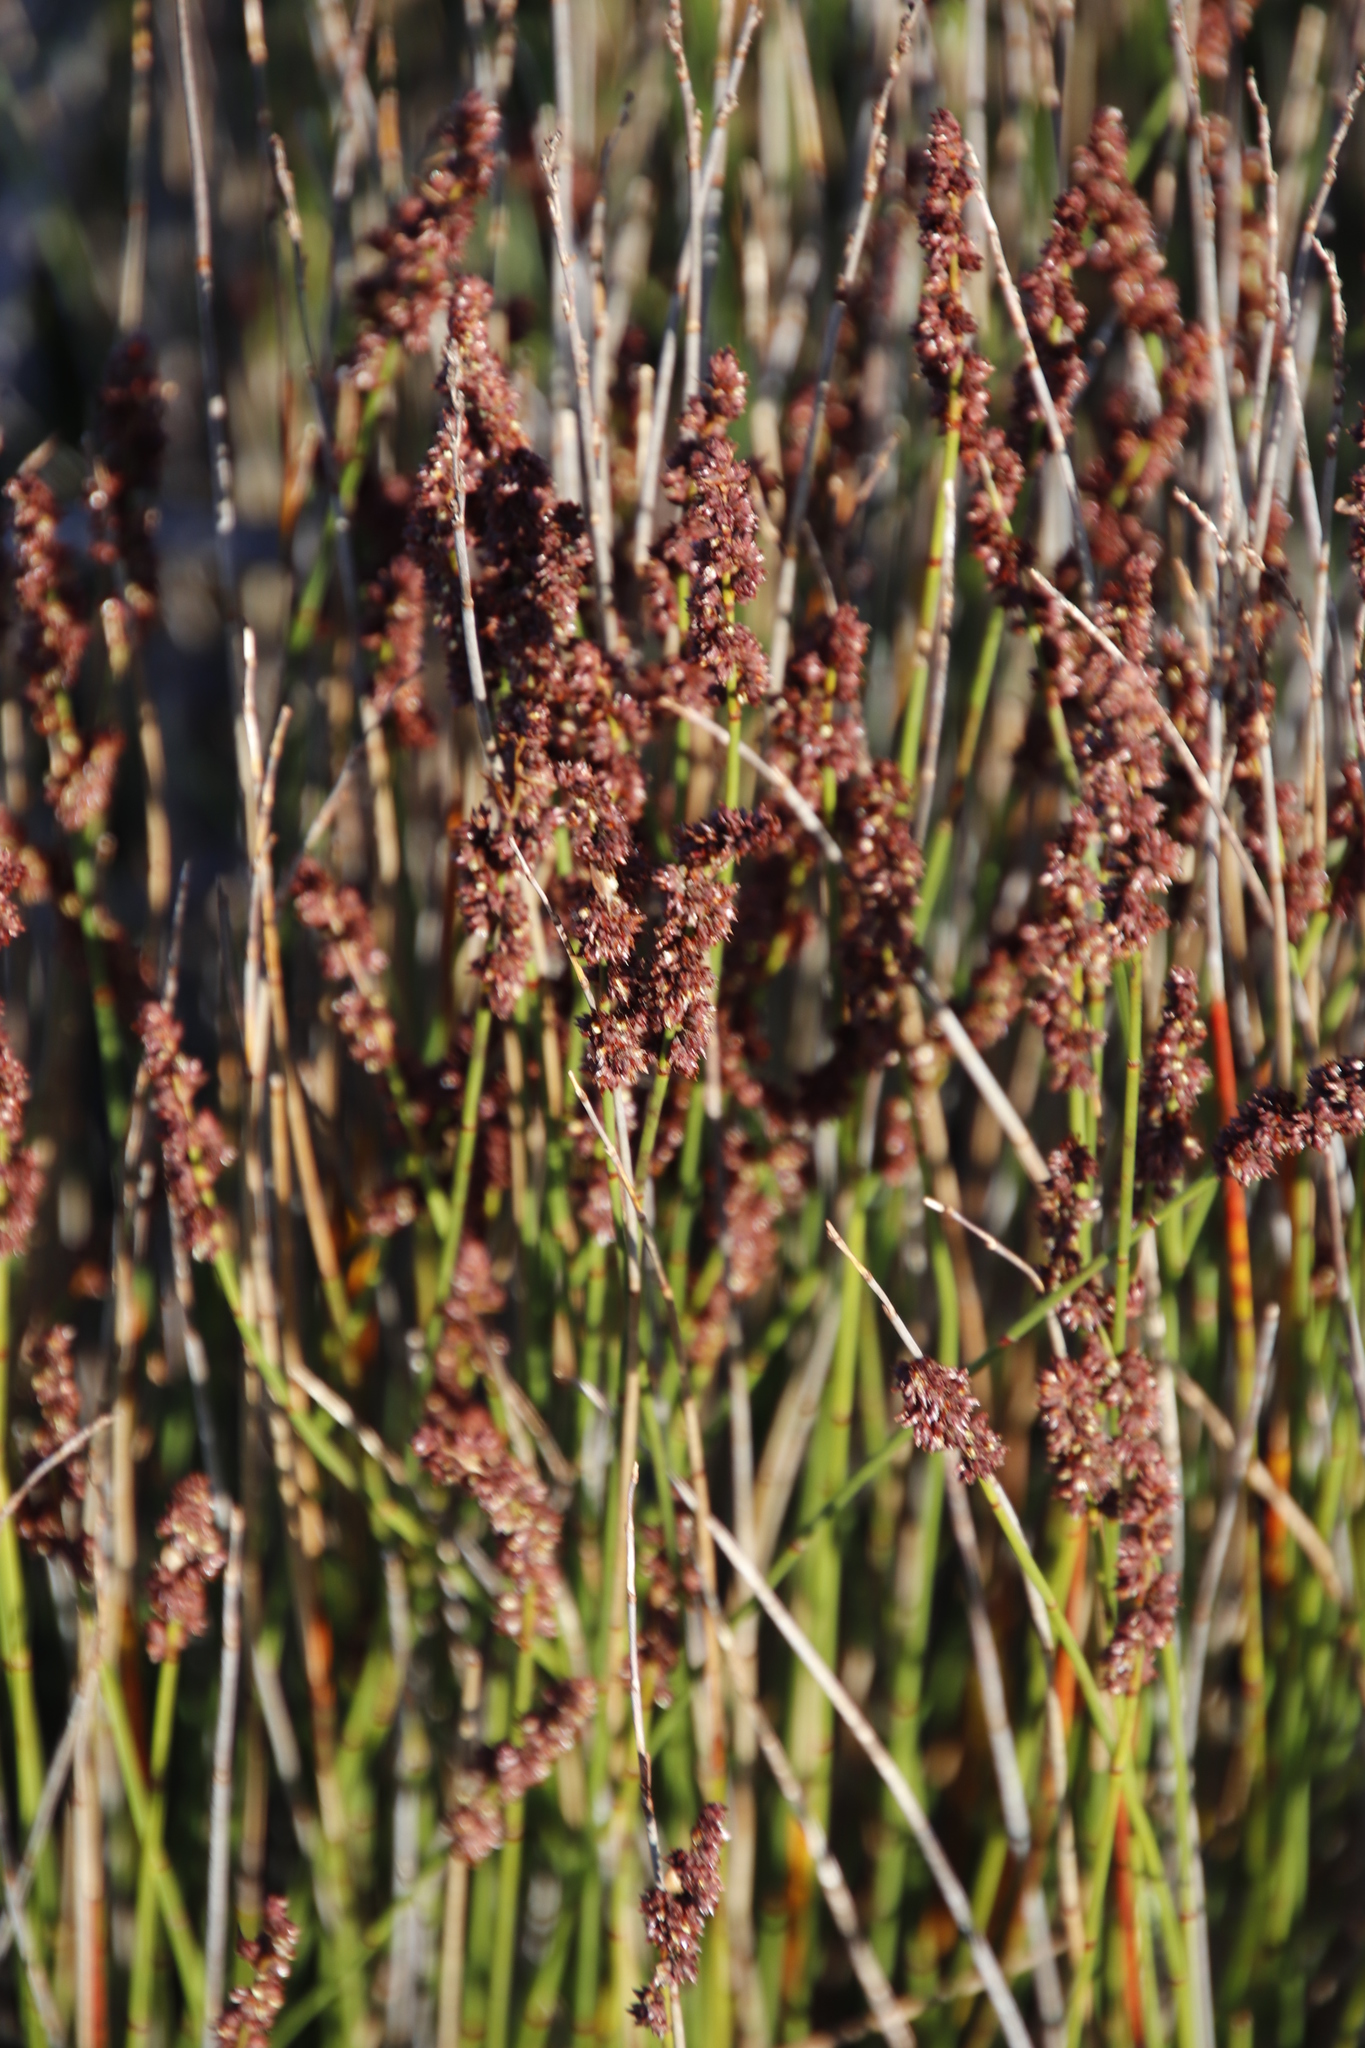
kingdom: Plantae
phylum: Tracheophyta
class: Liliopsida
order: Poales
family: Restionaceae
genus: Elegia
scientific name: Elegia nuda
